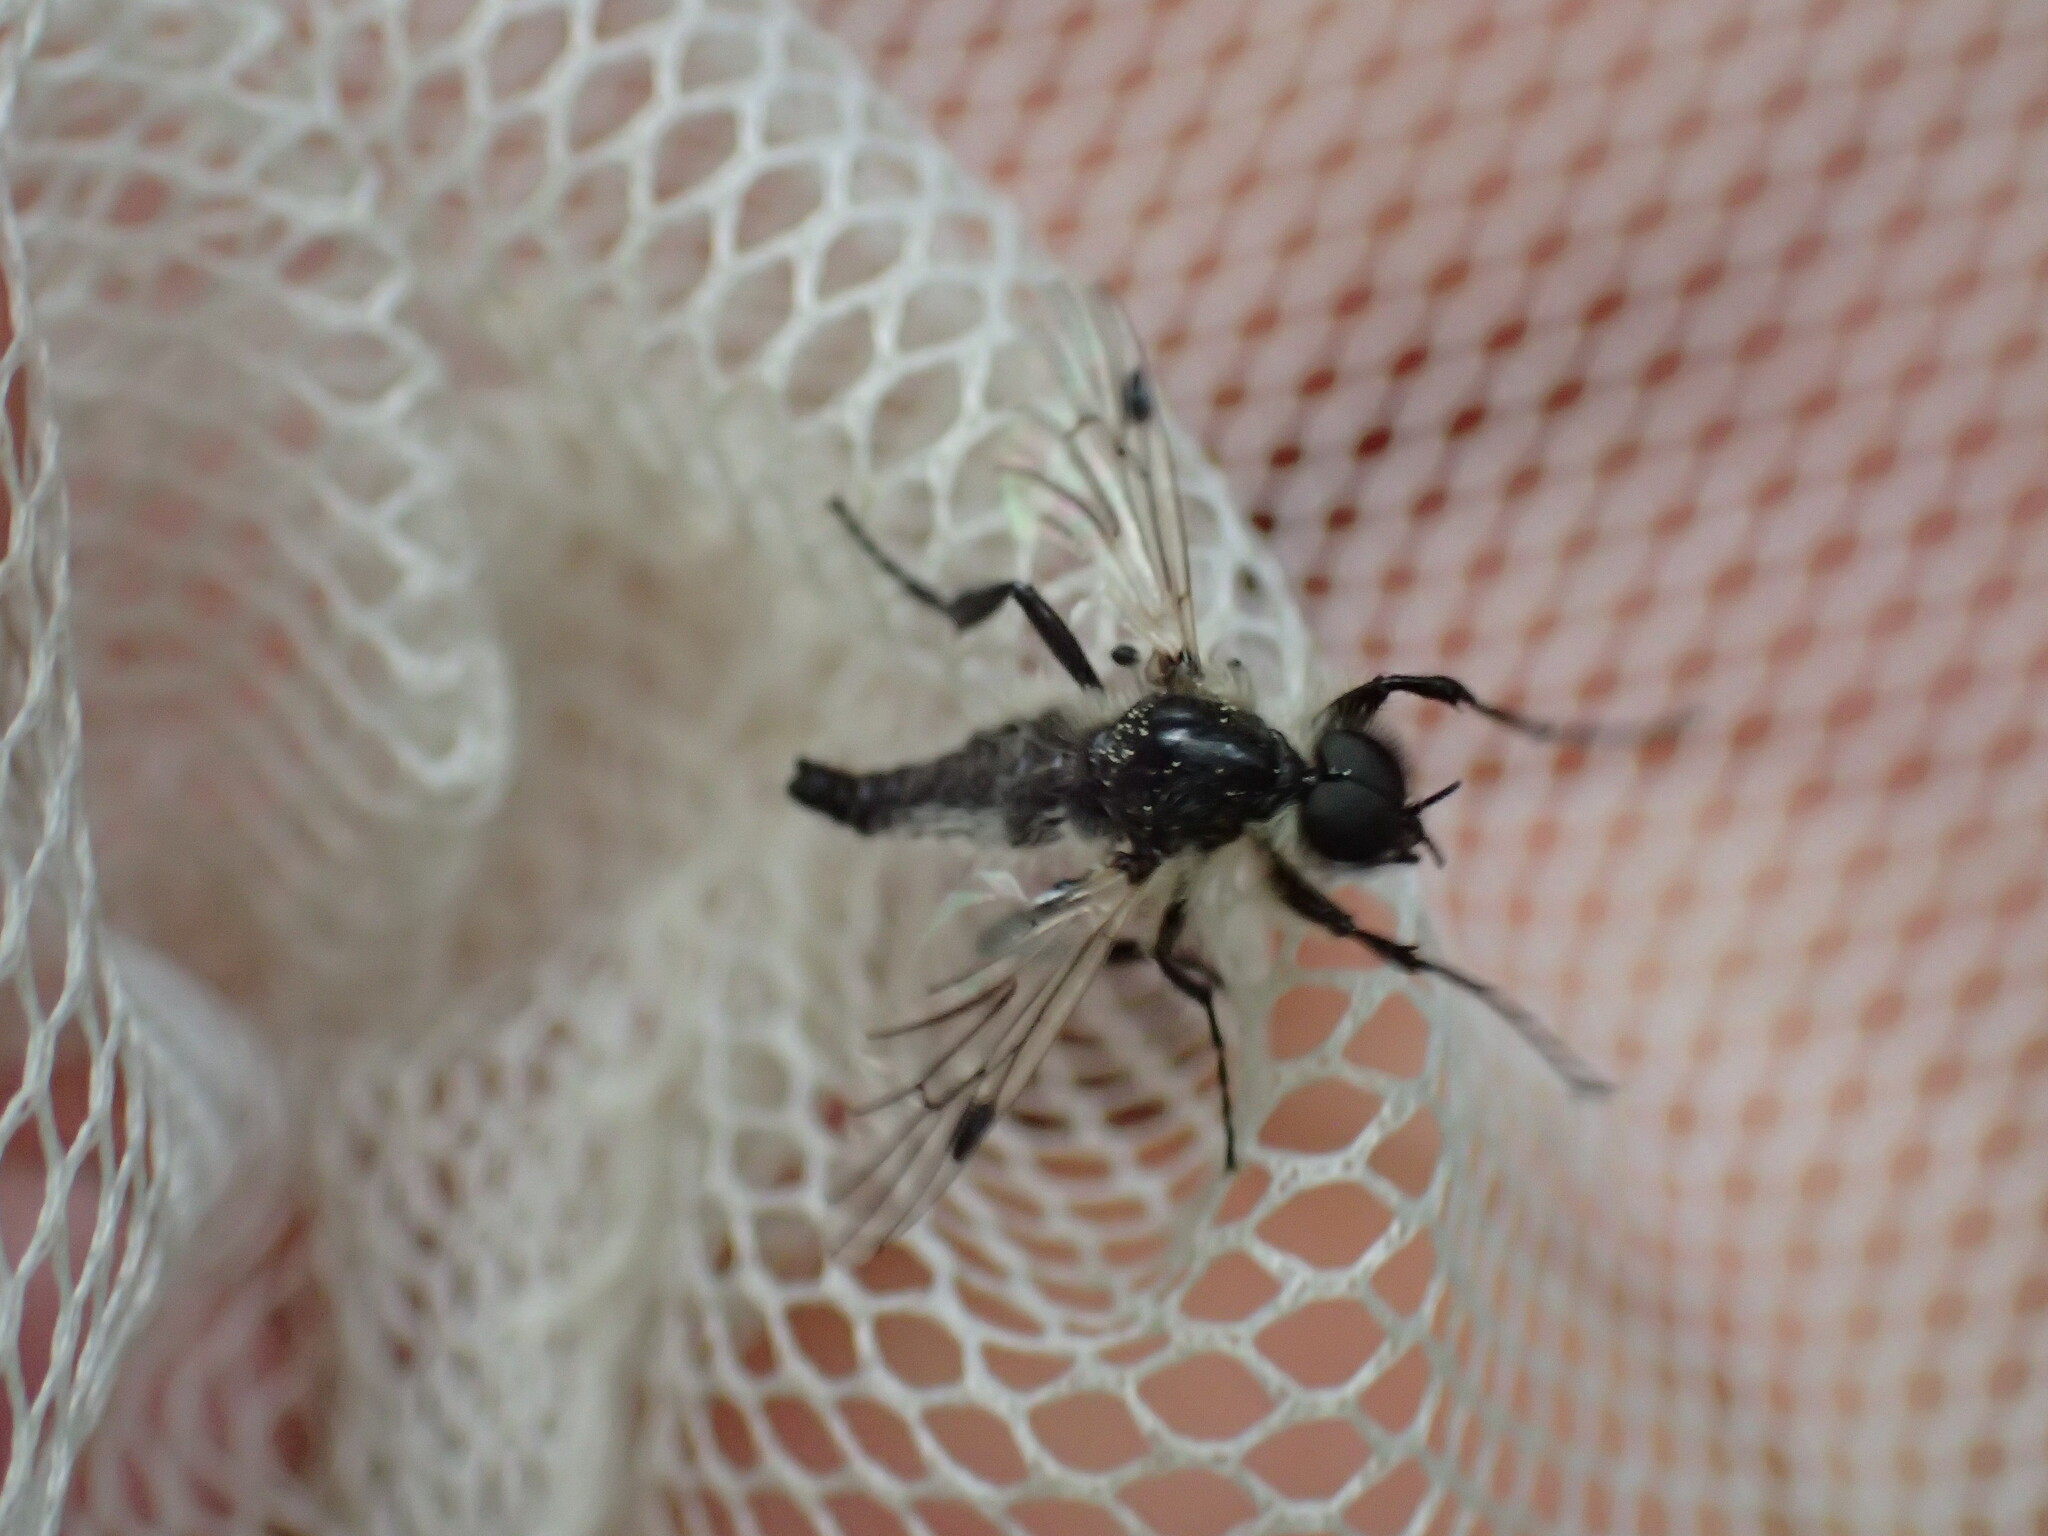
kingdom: Animalia
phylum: Arthropoda
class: Insecta
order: Diptera
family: Bibionidae
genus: Bibio
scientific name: Bibio albipennis
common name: White-winged march fly
